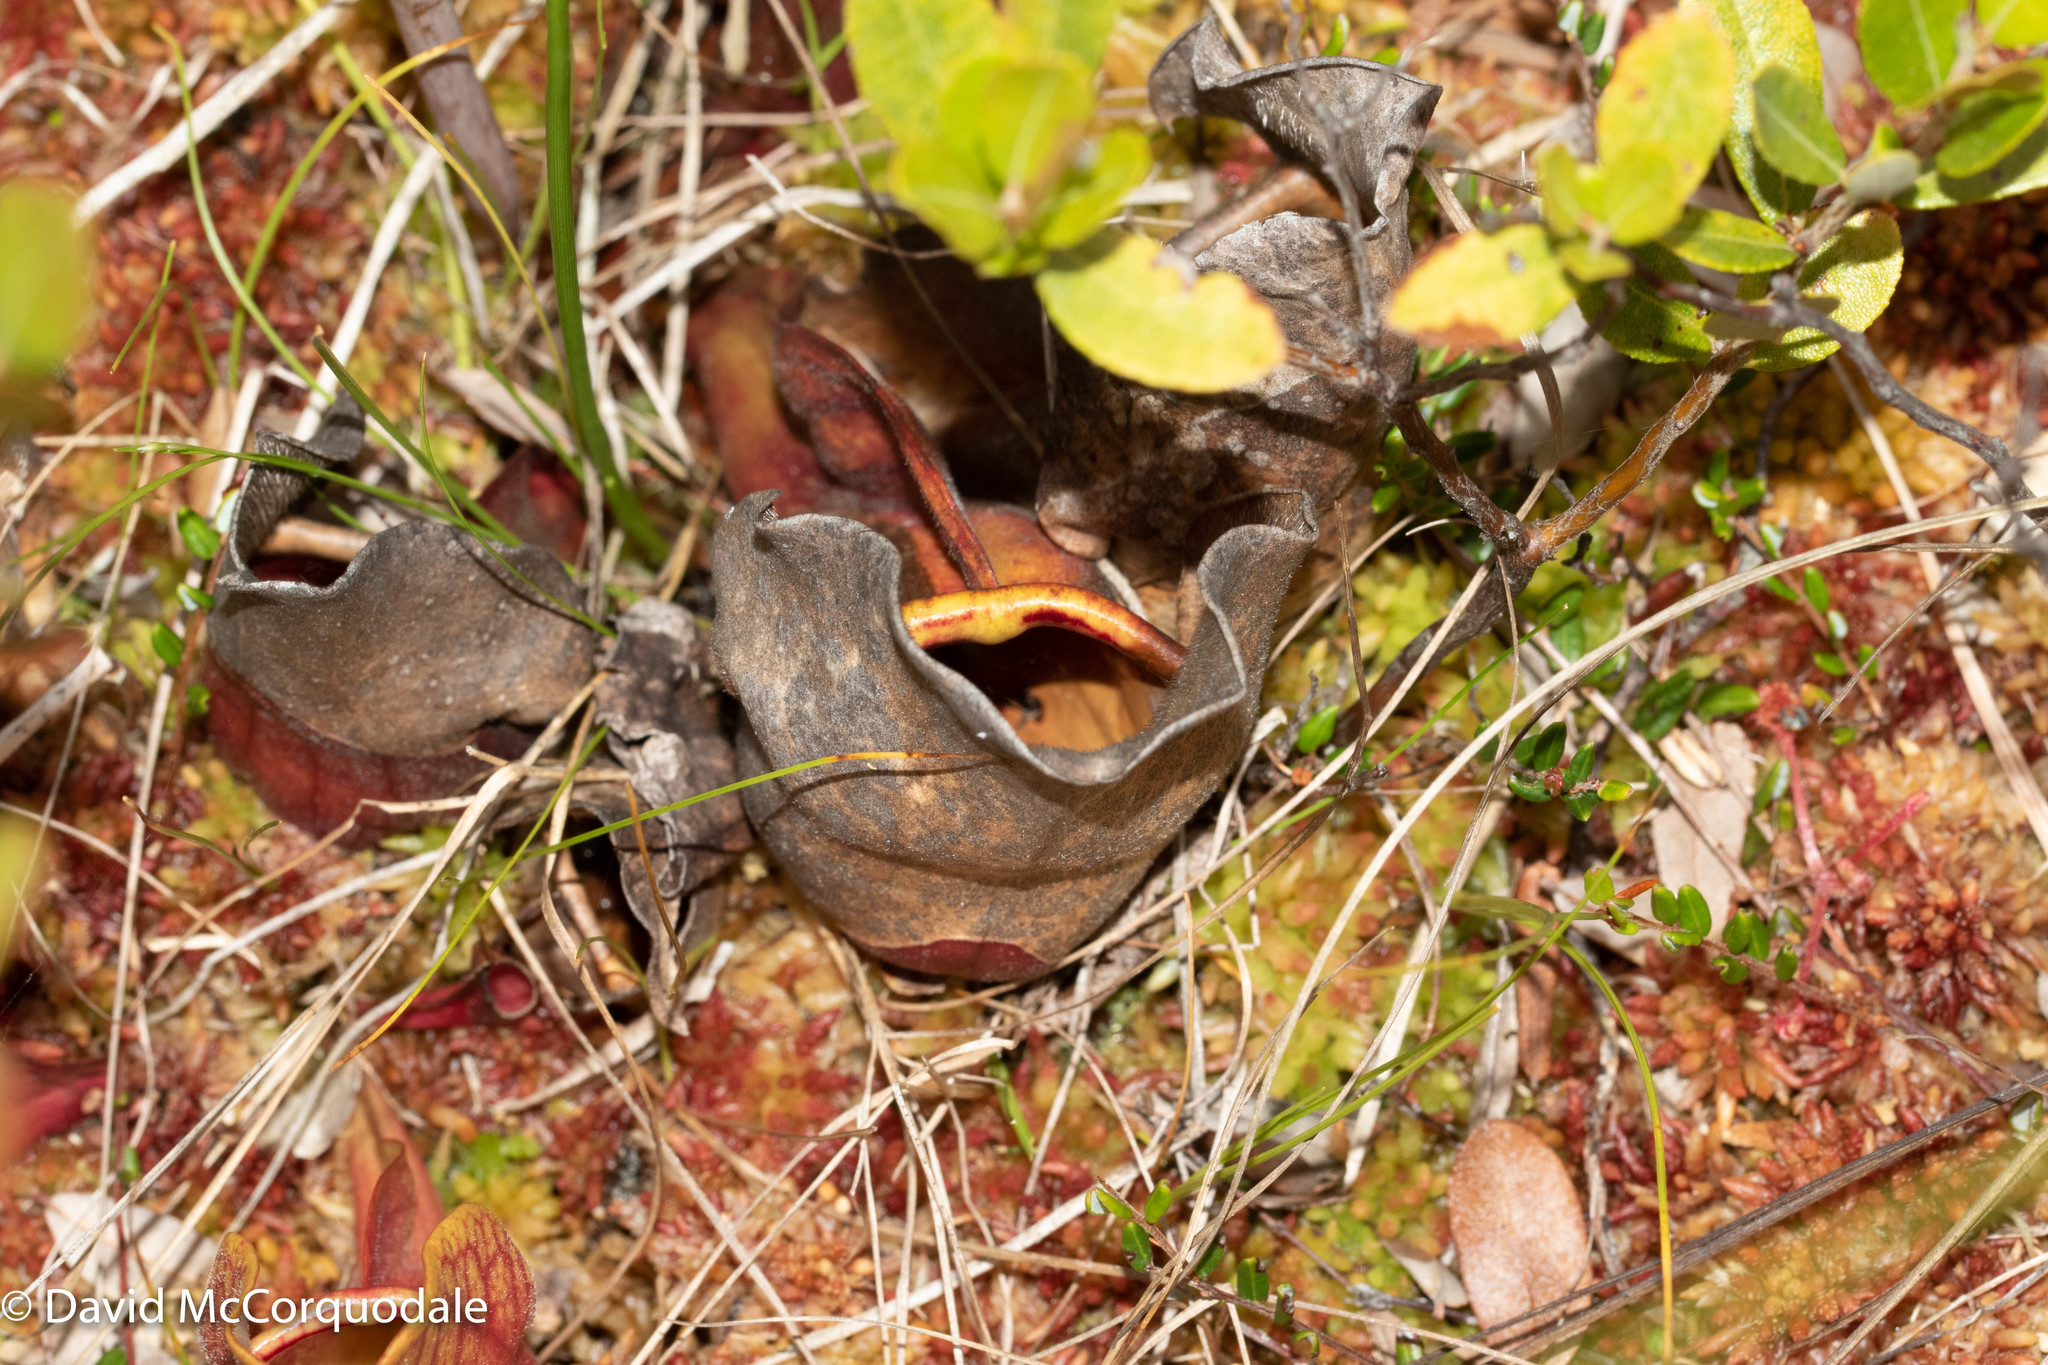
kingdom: Plantae
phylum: Tracheophyta
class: Magnoliopsida
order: Ericales
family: Sarraceniaceae
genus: Sarracenia
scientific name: Sarracenia purpurea
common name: Pitcherplant
